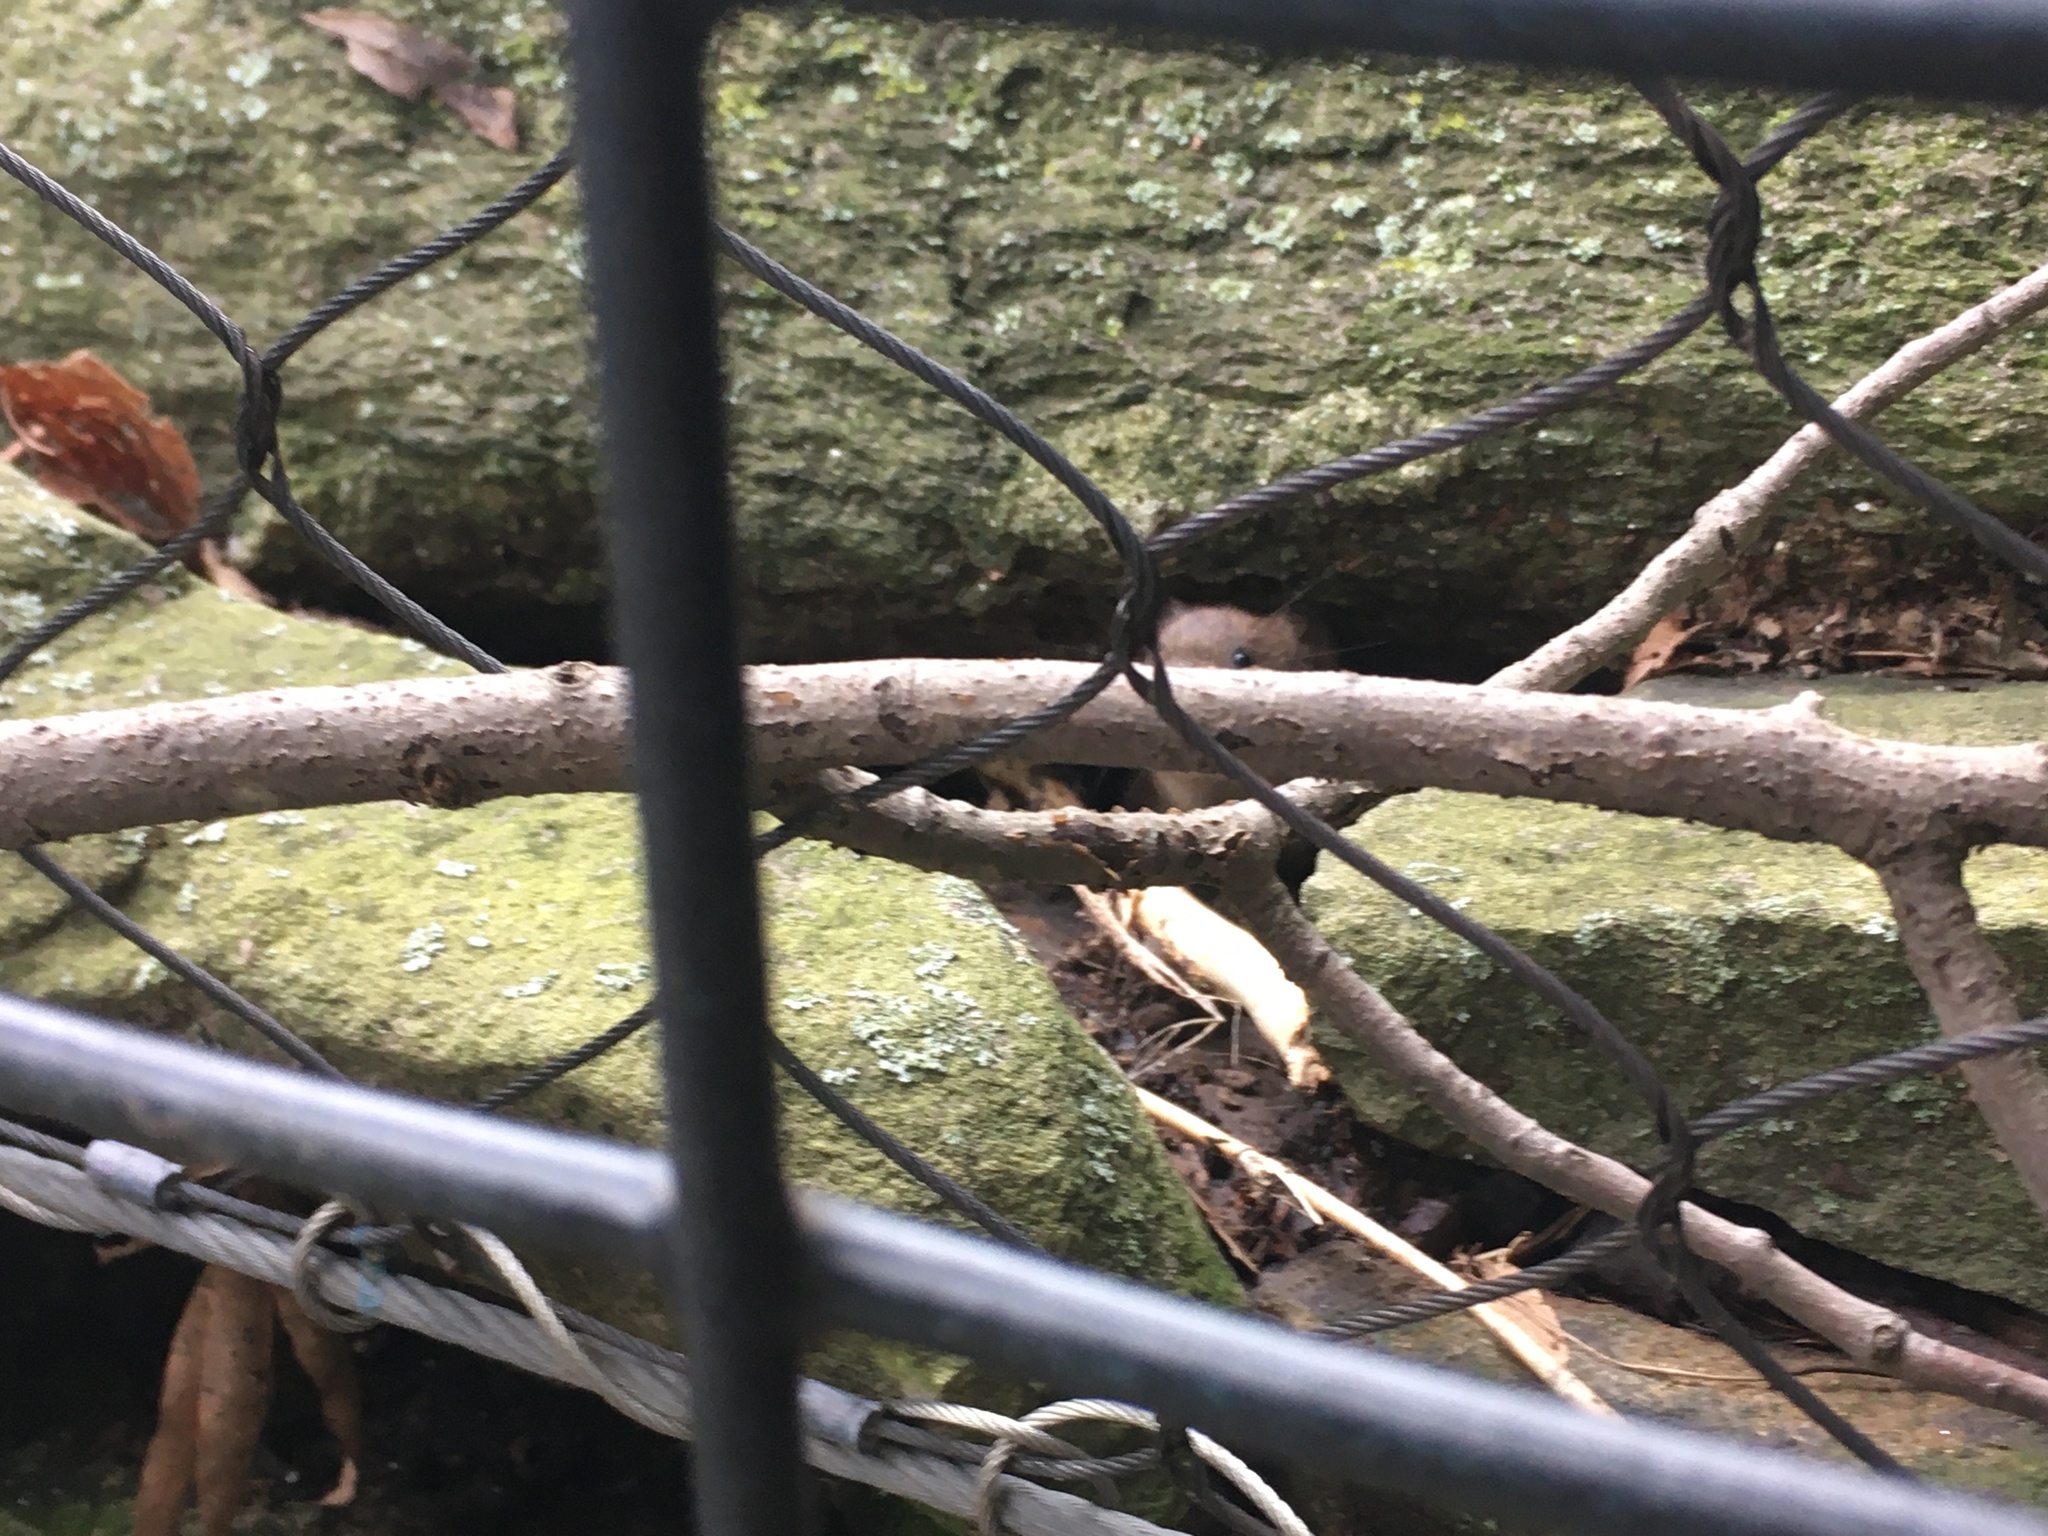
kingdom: Animalia
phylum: Chordata
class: Mammalia
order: Rodentia
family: Cricetidae
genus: Microtus
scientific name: Microtus pennsylvanicus
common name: Meadow vole
